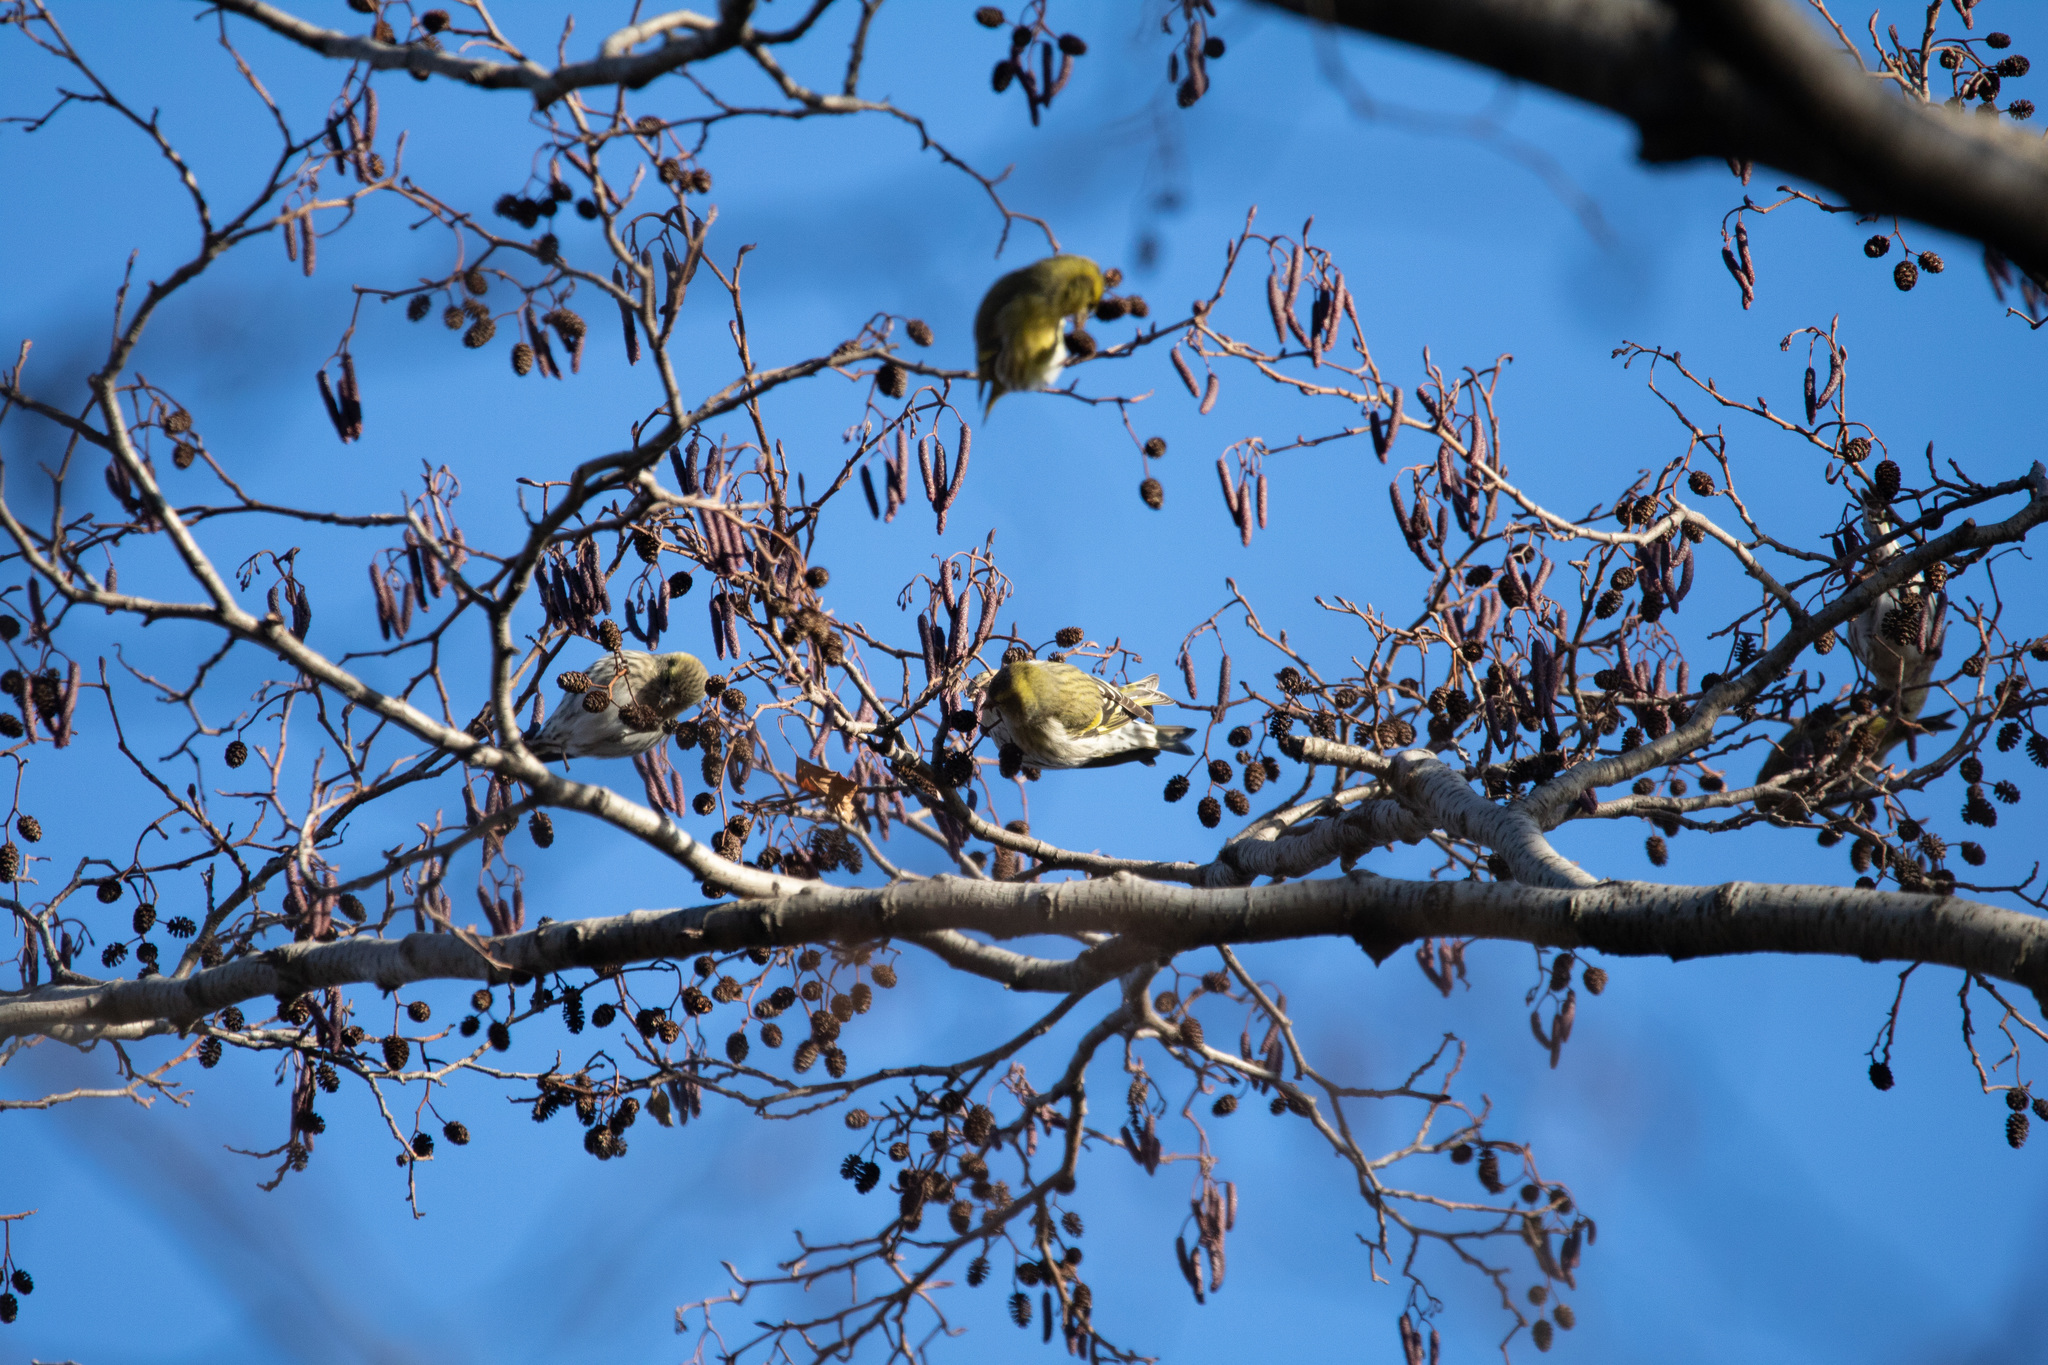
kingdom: Animalia
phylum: Chordata
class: Aves
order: Passeriformes
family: Fringillidae
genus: Spinus
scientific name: Spinus spinus
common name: Eurasian siskin
